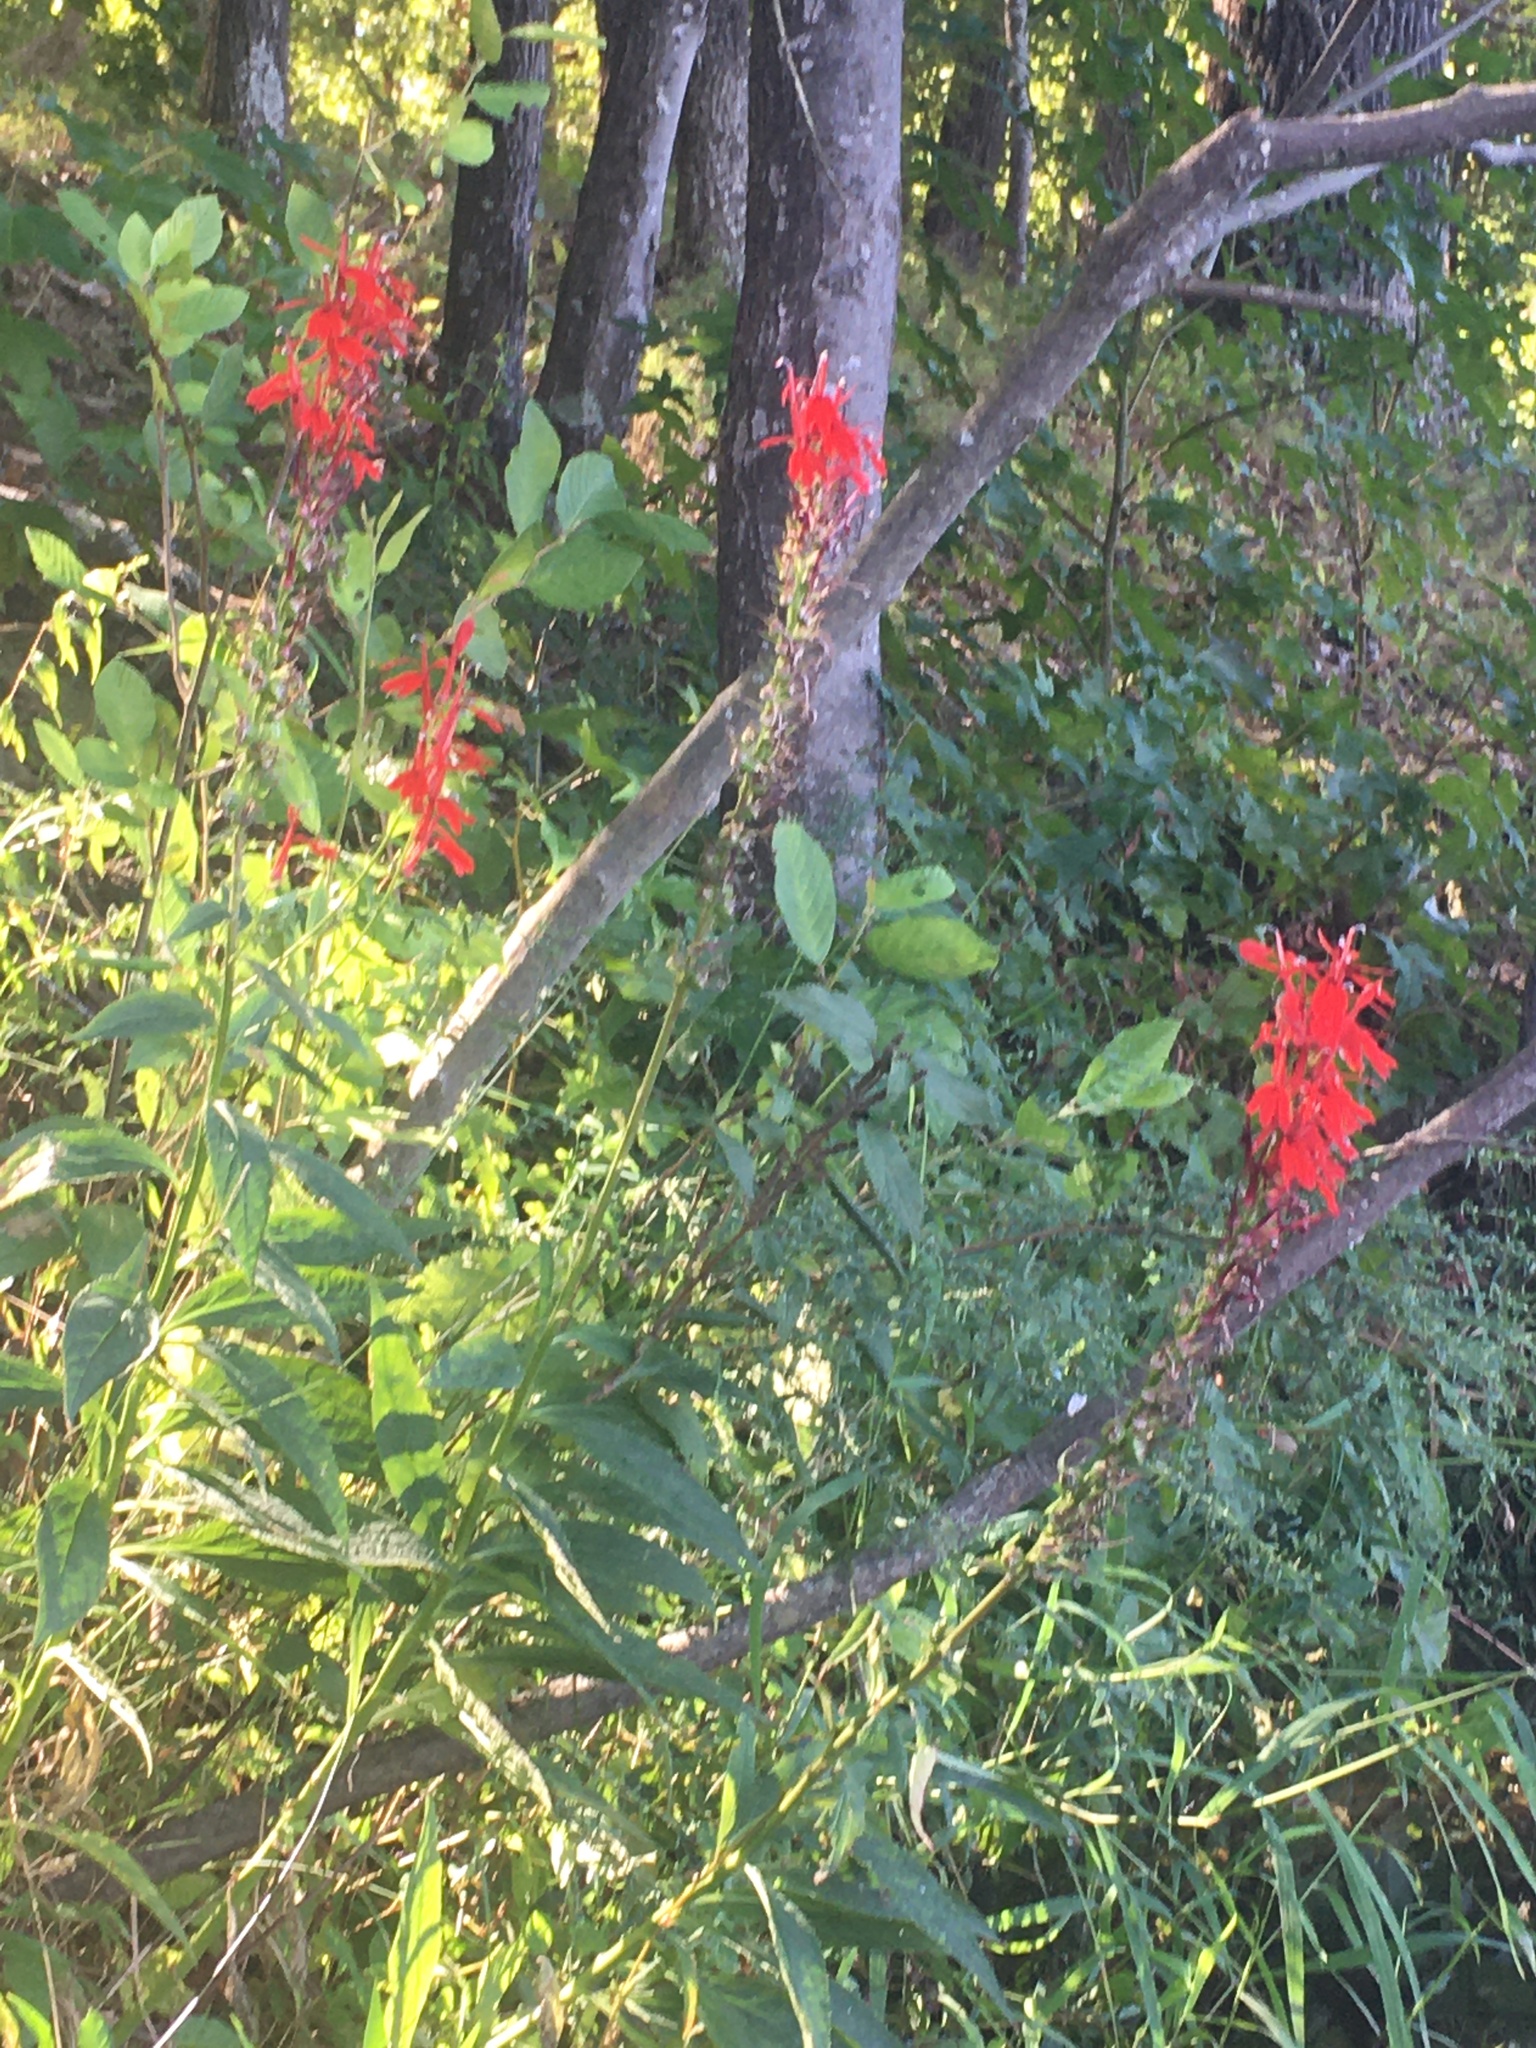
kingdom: Plantae
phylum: Tracheophyta
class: Magnoliopsida
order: Asterales
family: Campanulaceae
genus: Lobelia
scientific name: Lobelia cardinalis
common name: Cardinal flower
